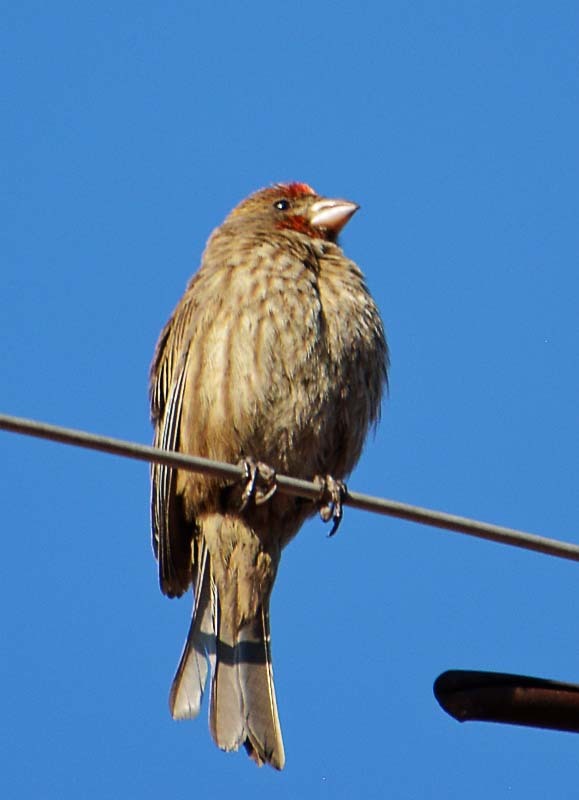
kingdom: Animalia
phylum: Chordata
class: Aves
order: Passeriformes
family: Fringillidae
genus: Haemorhous
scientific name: Haemorhous mexicanus
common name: House finch
